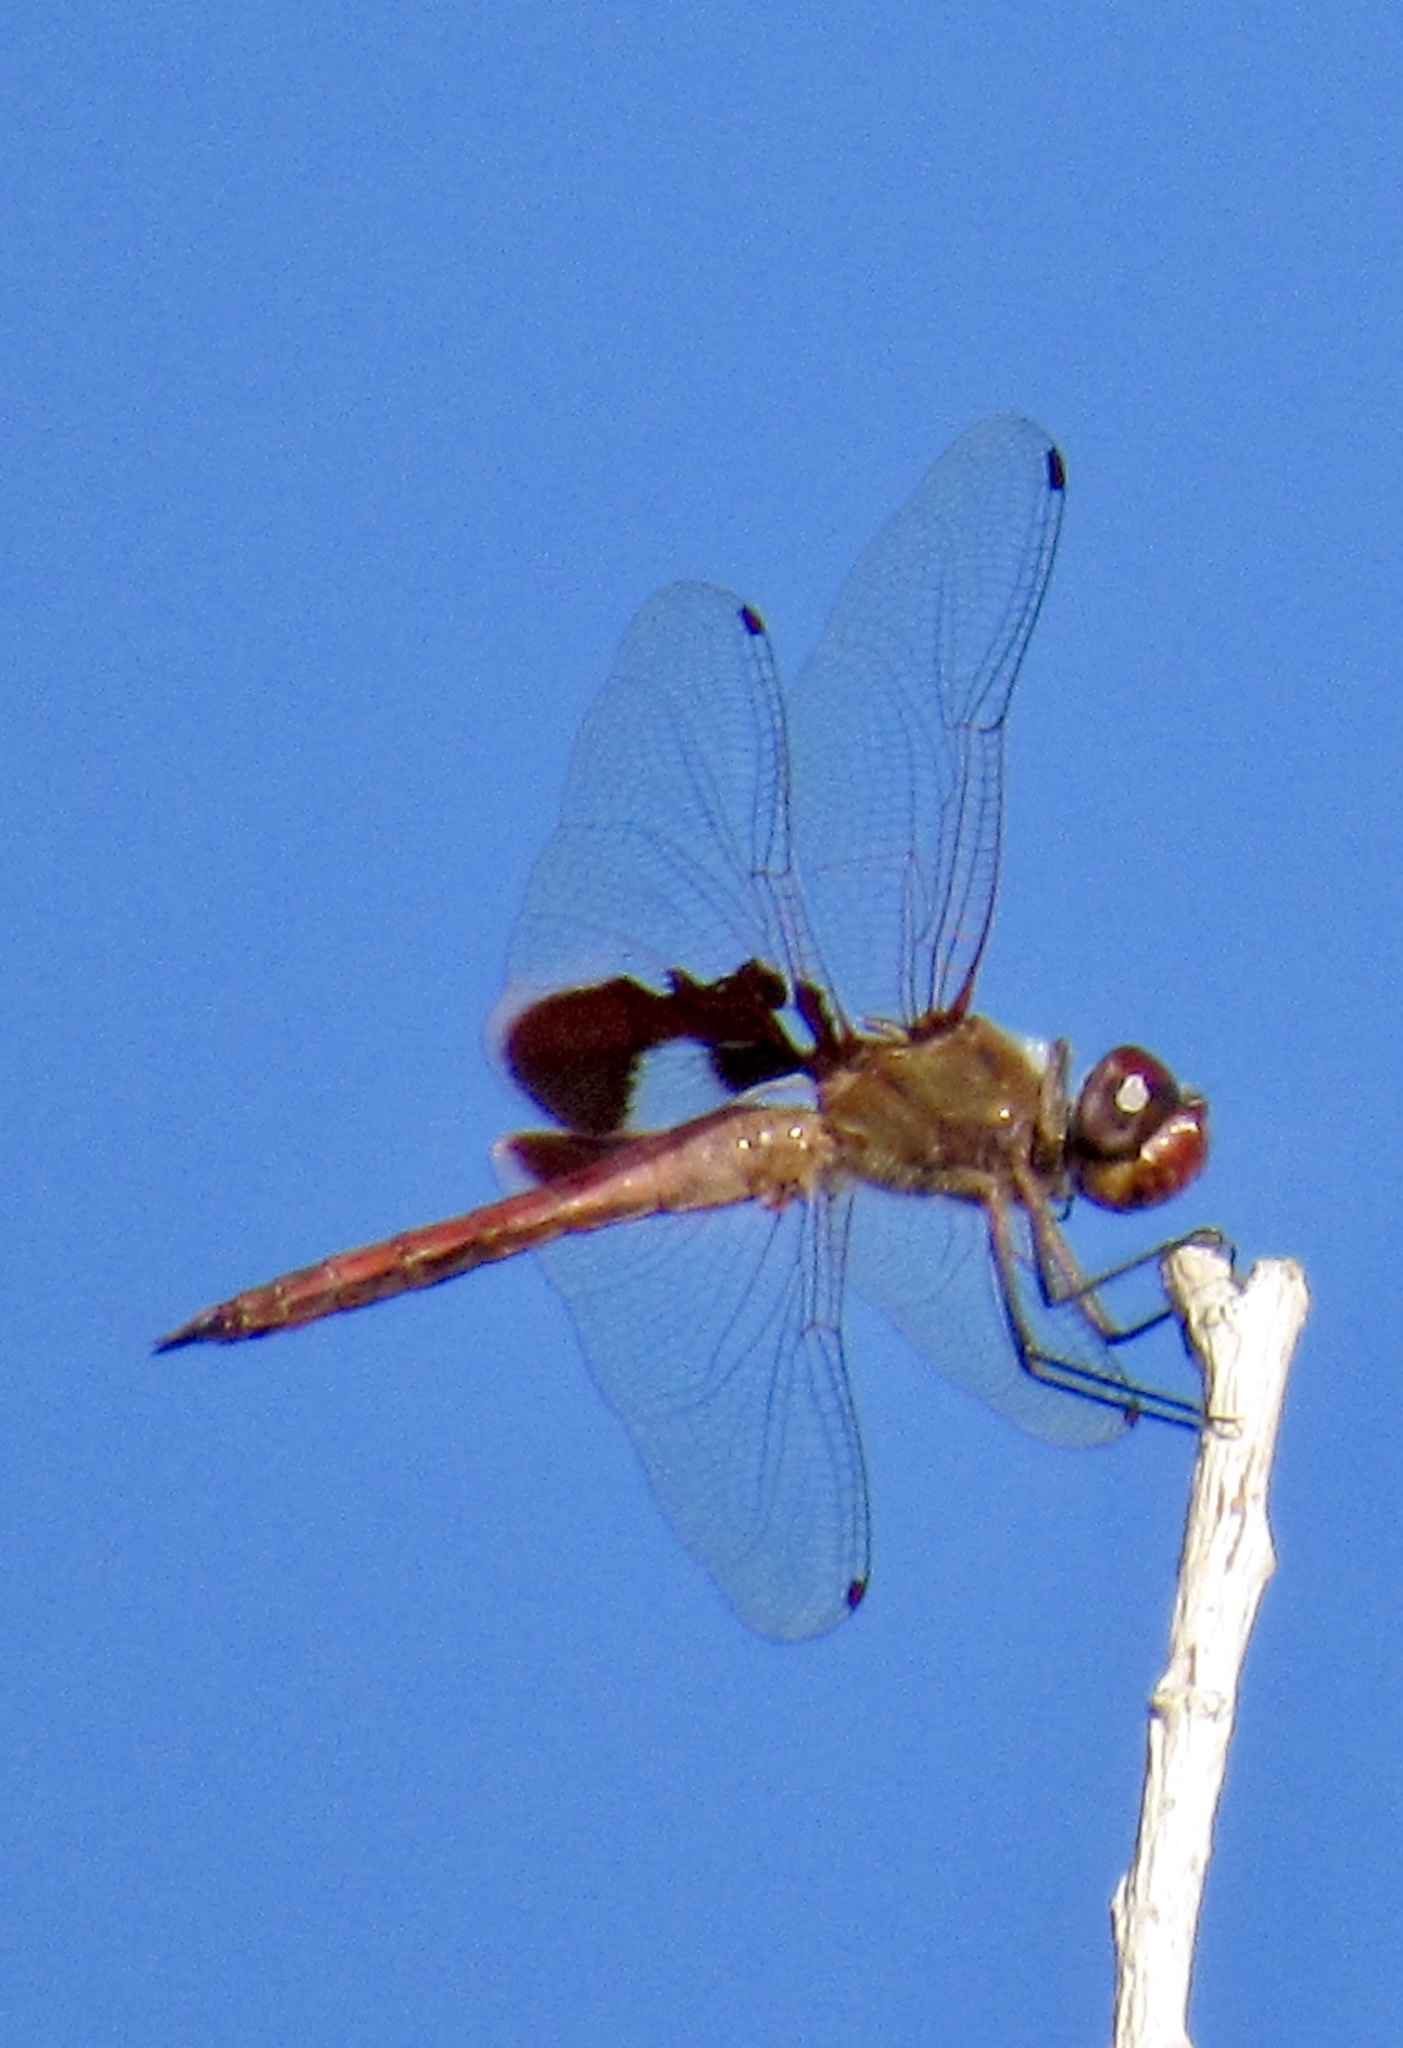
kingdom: Animalia
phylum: Arthropoda
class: Insecta
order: Odonata
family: Libellulidae
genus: Tramea
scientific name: Tramea onusta
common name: Red saddlebags
